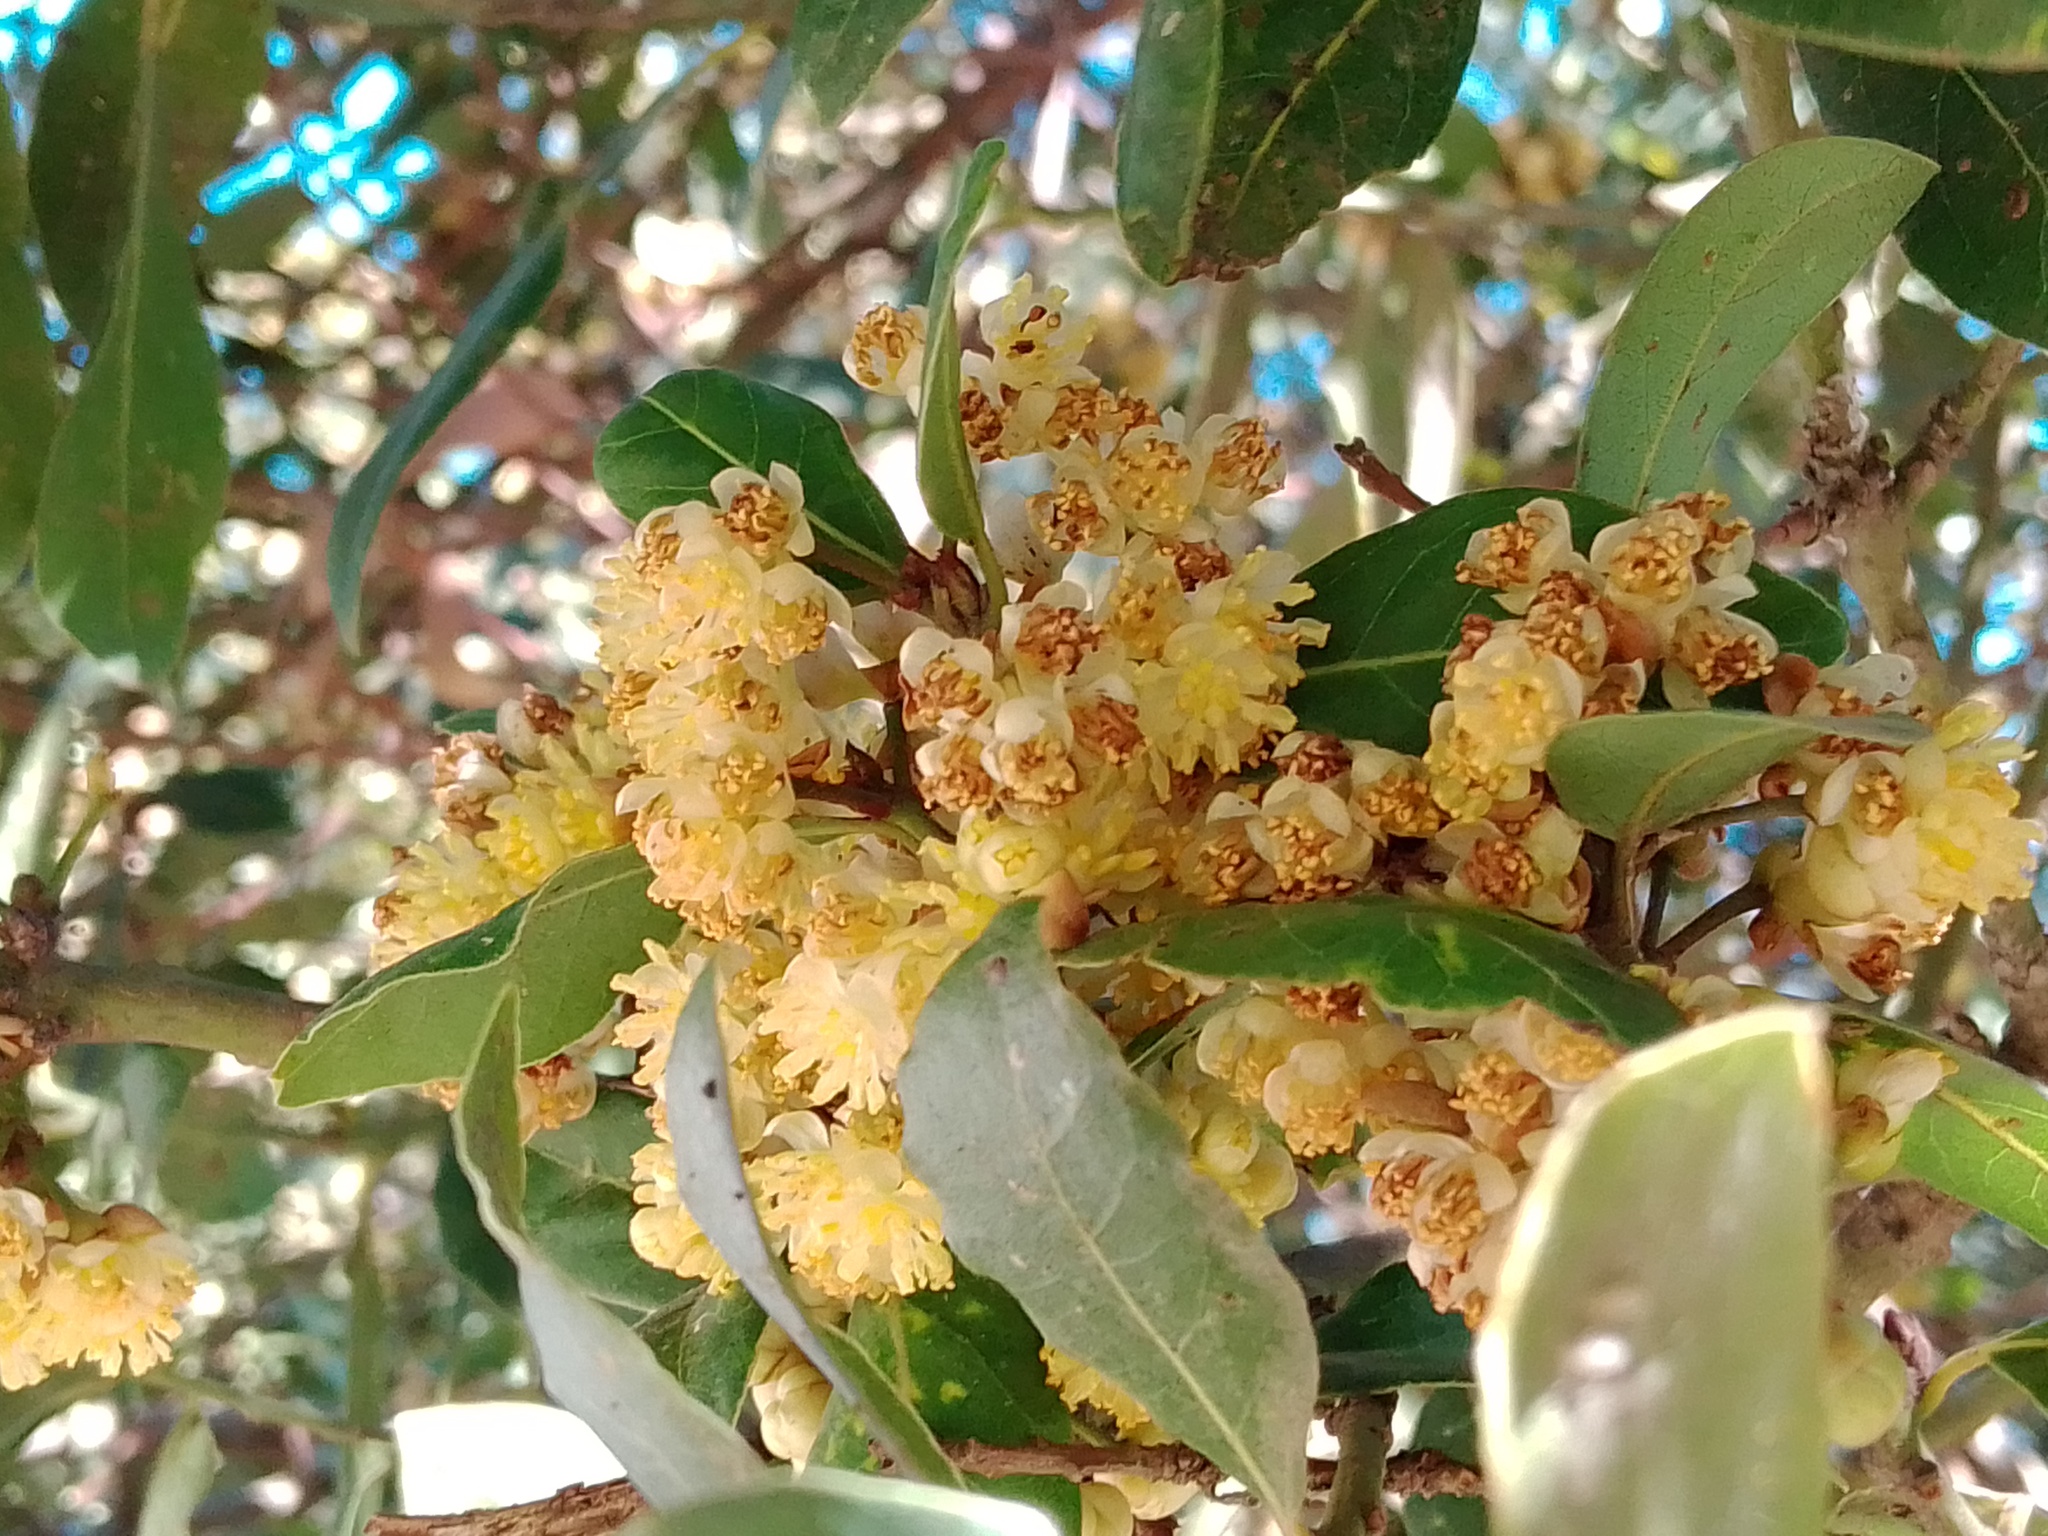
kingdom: Plantae
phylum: Tracheophyta
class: Magnoliopsida
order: Laurales
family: Lauraceae
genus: Laurus
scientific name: Laurus nobilis
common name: Bay
